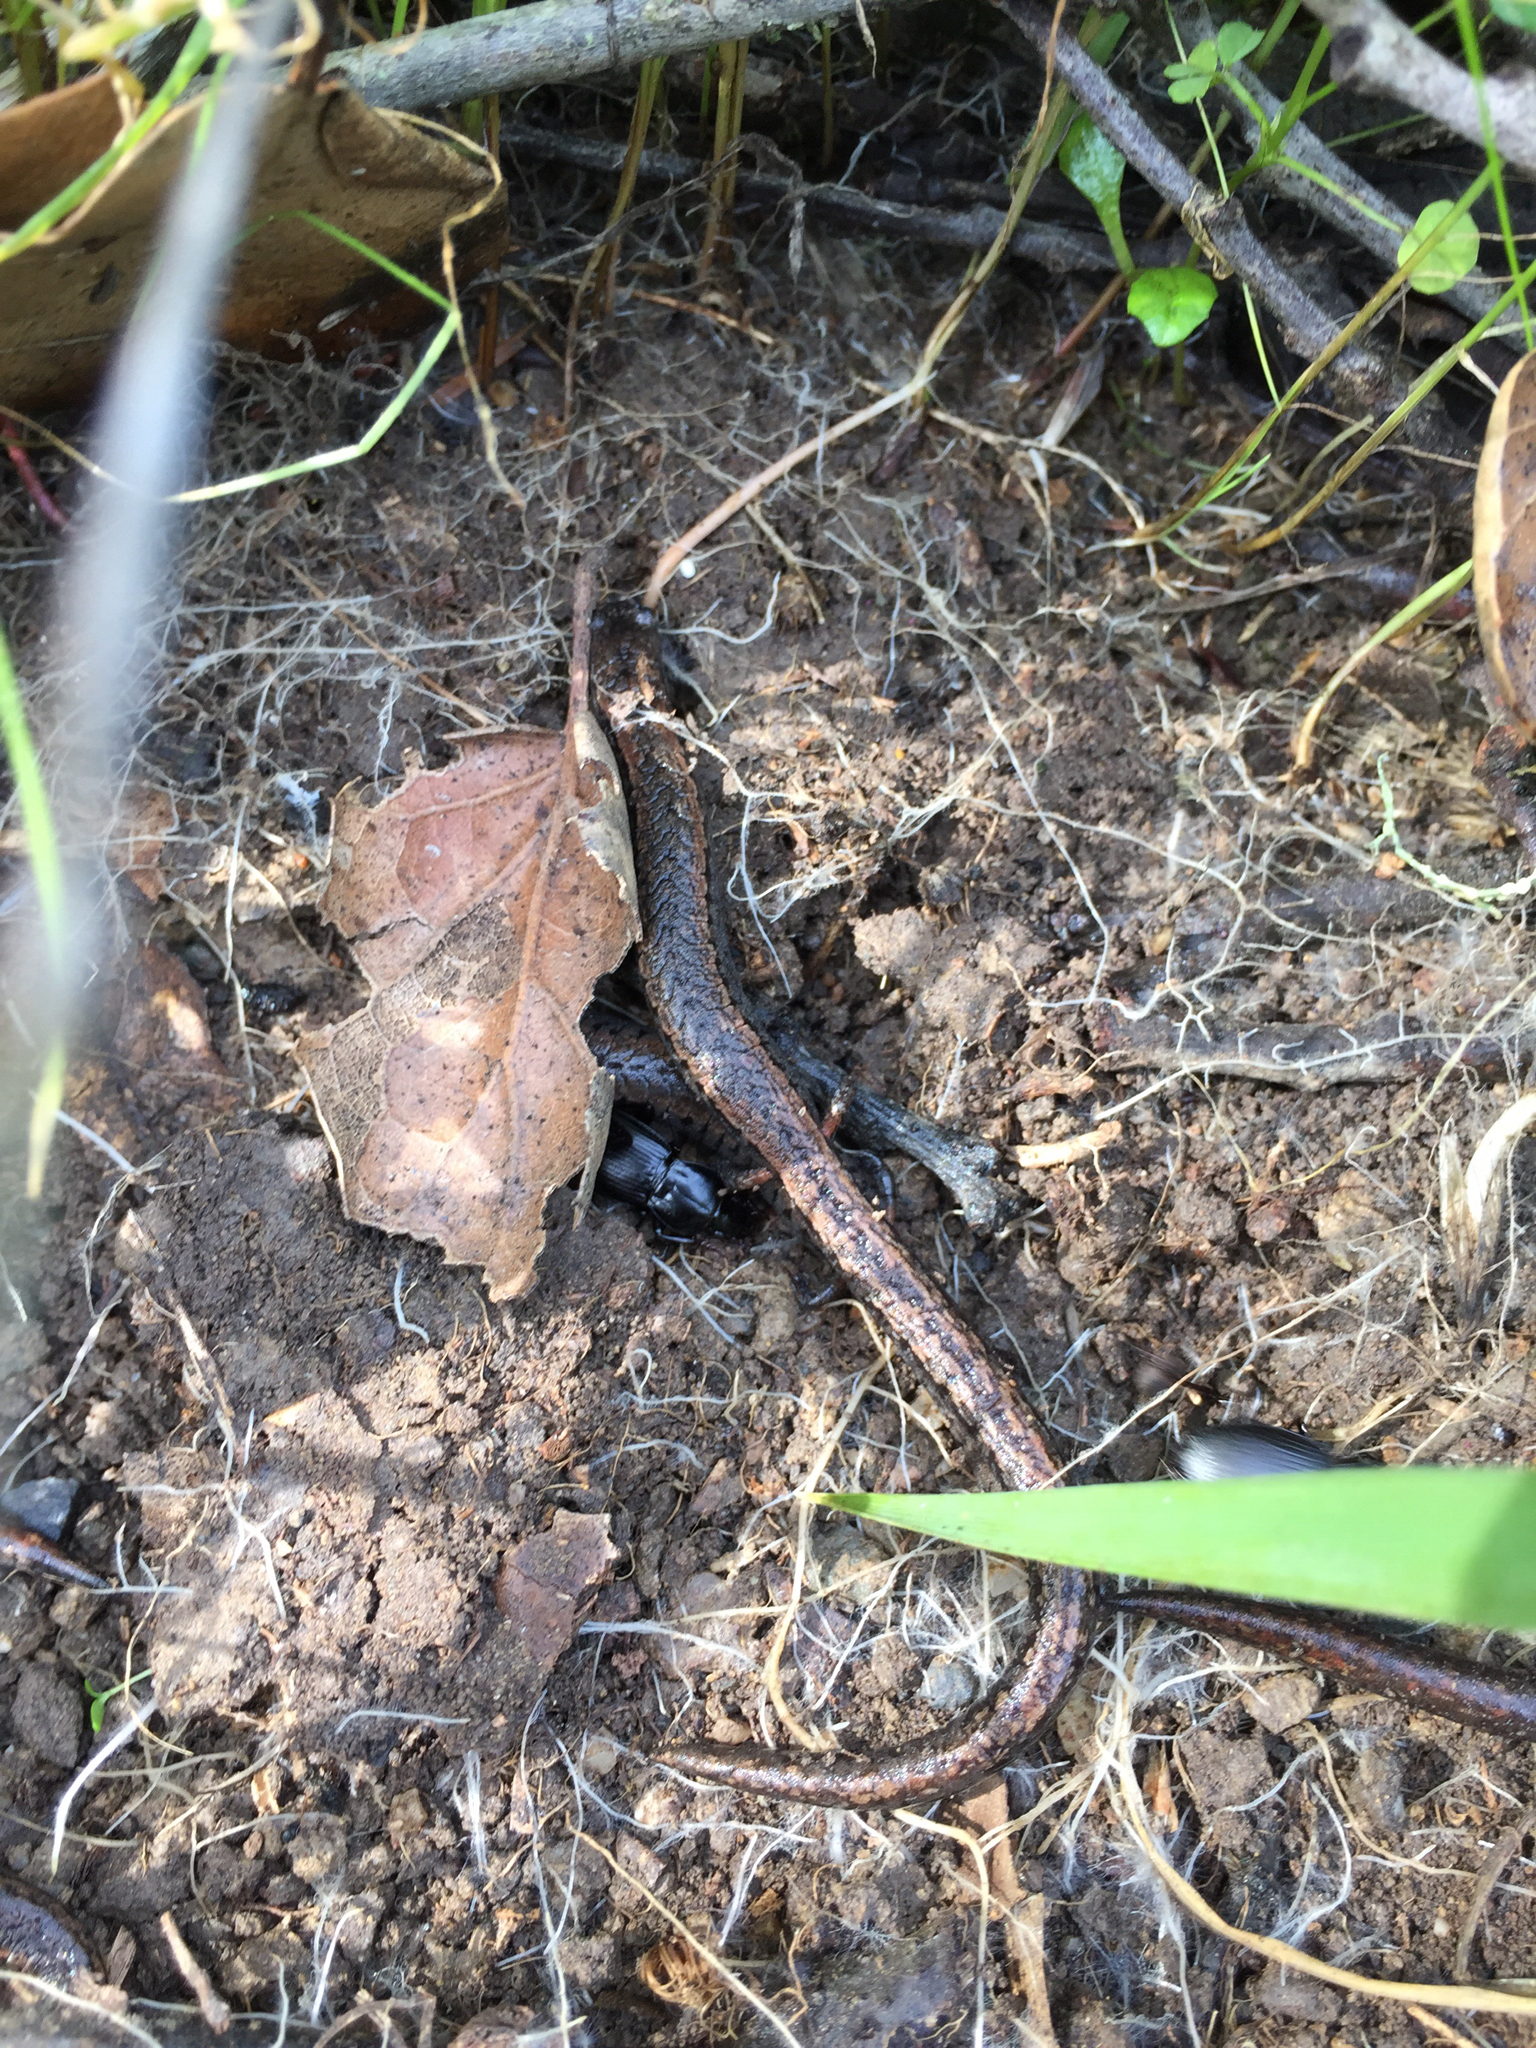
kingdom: Animalia
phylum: Chordata
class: Amphibia
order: Caudata
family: Plethodontidae
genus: Batrachoseps
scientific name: Batrachoseps attenuatus
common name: California slender salamander
